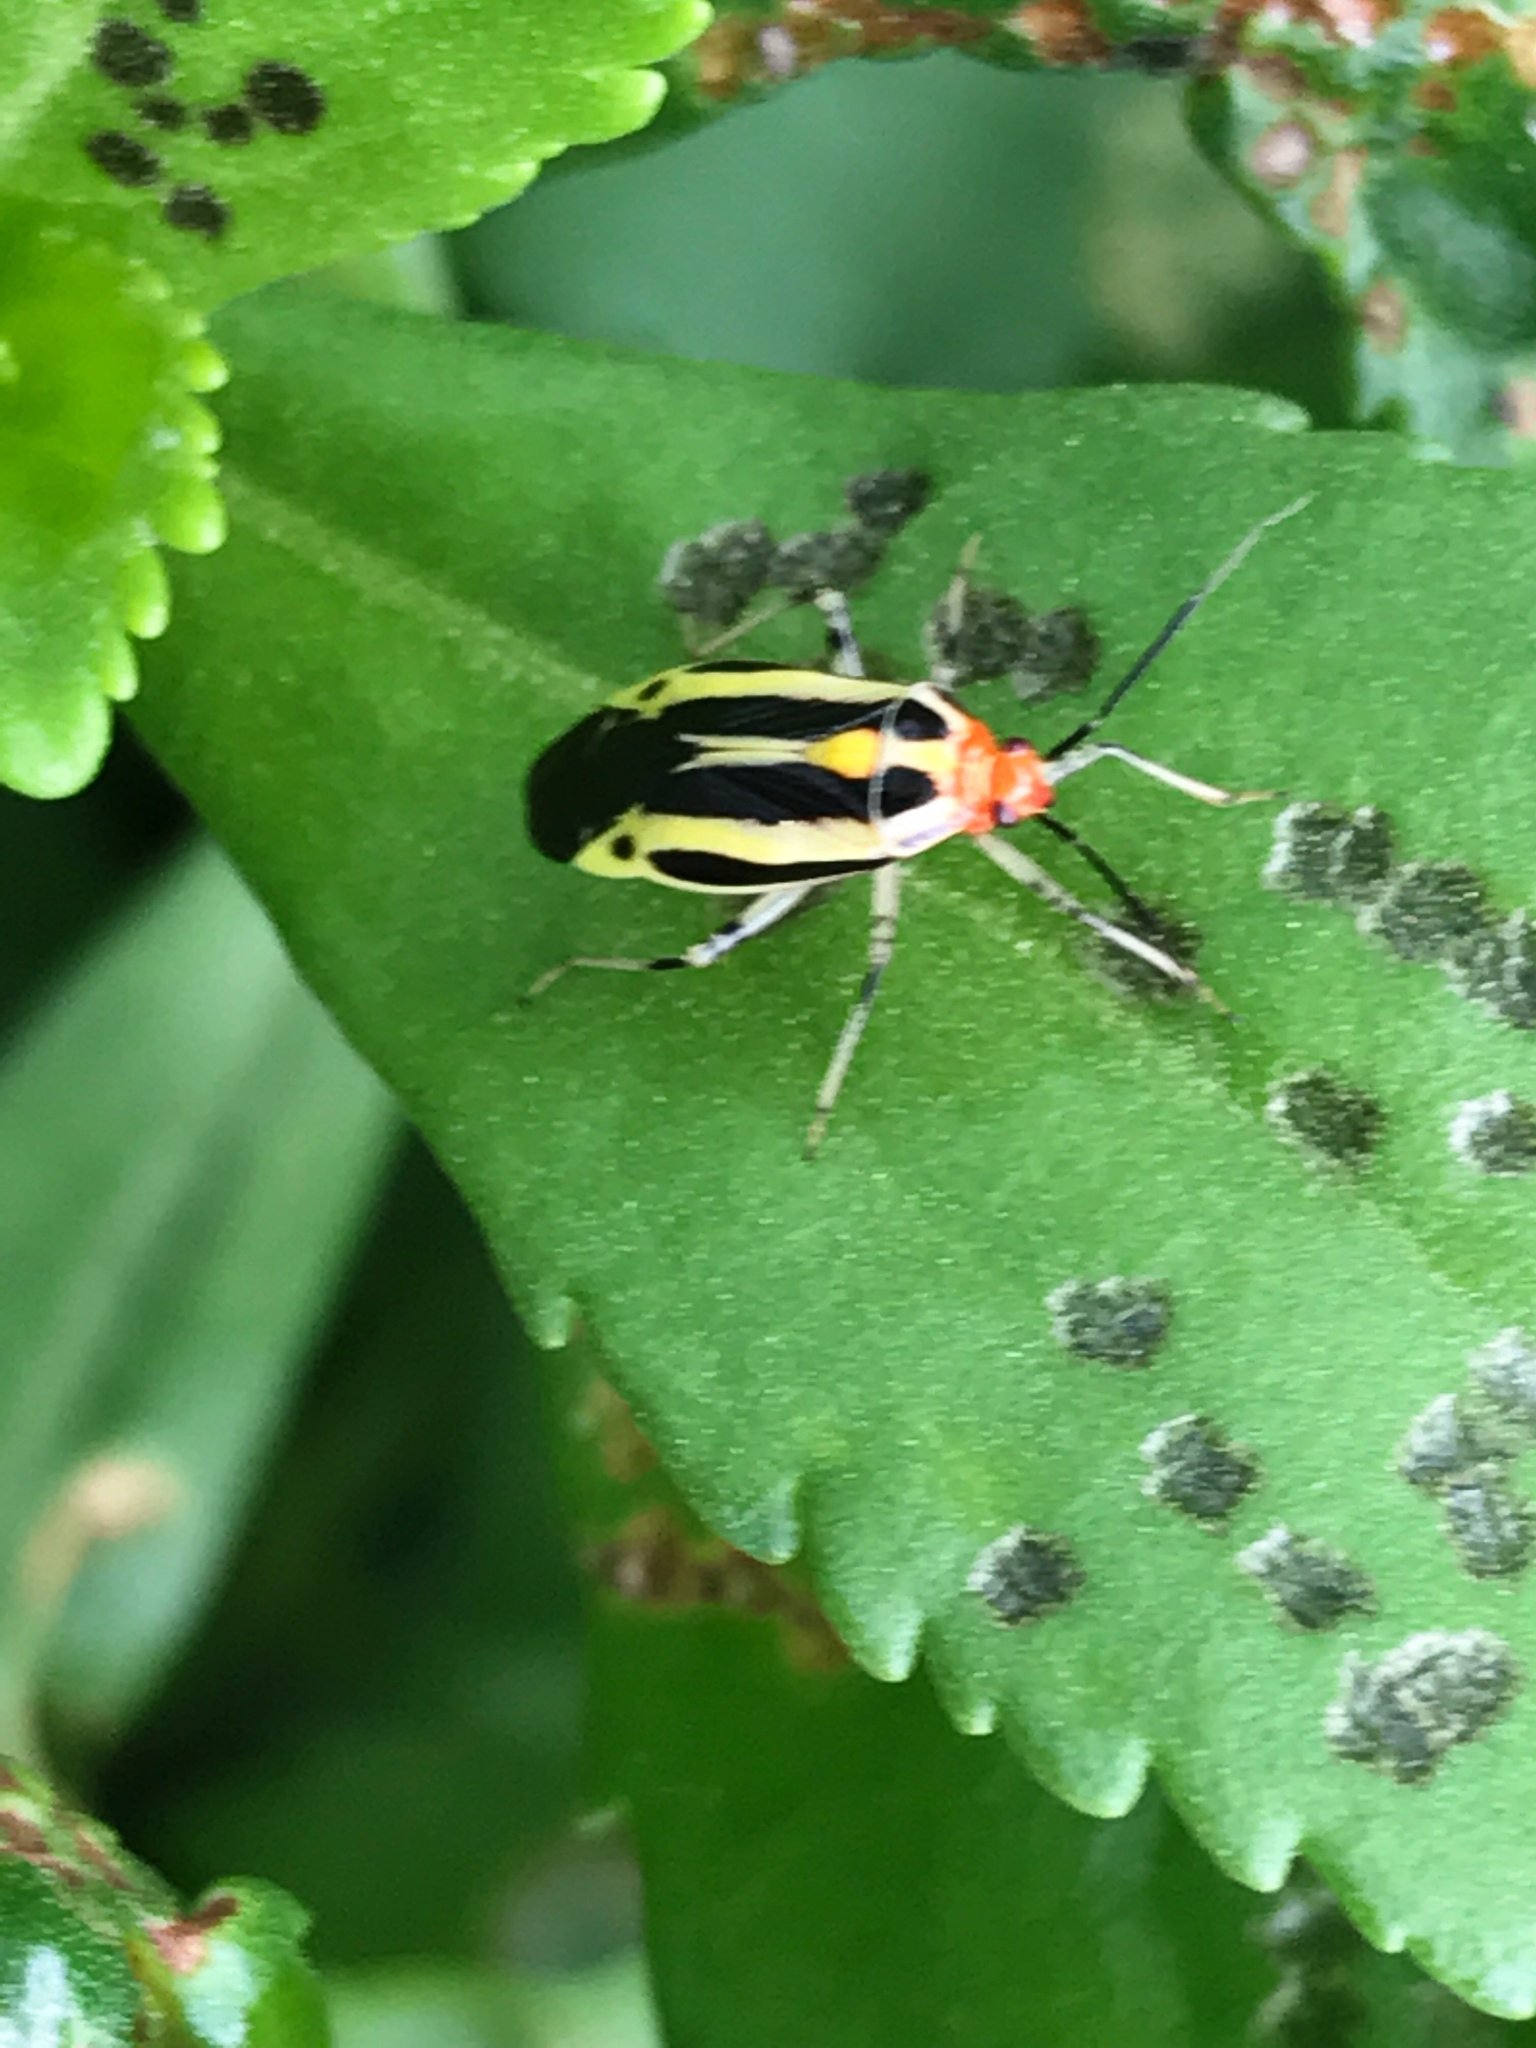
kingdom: Animalia
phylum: Arthropoda
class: Insecta
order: Hemiptera
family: Miridae
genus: Poecilocapsus
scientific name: Poecilocapsus lineatus
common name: Four-lined plant bug
